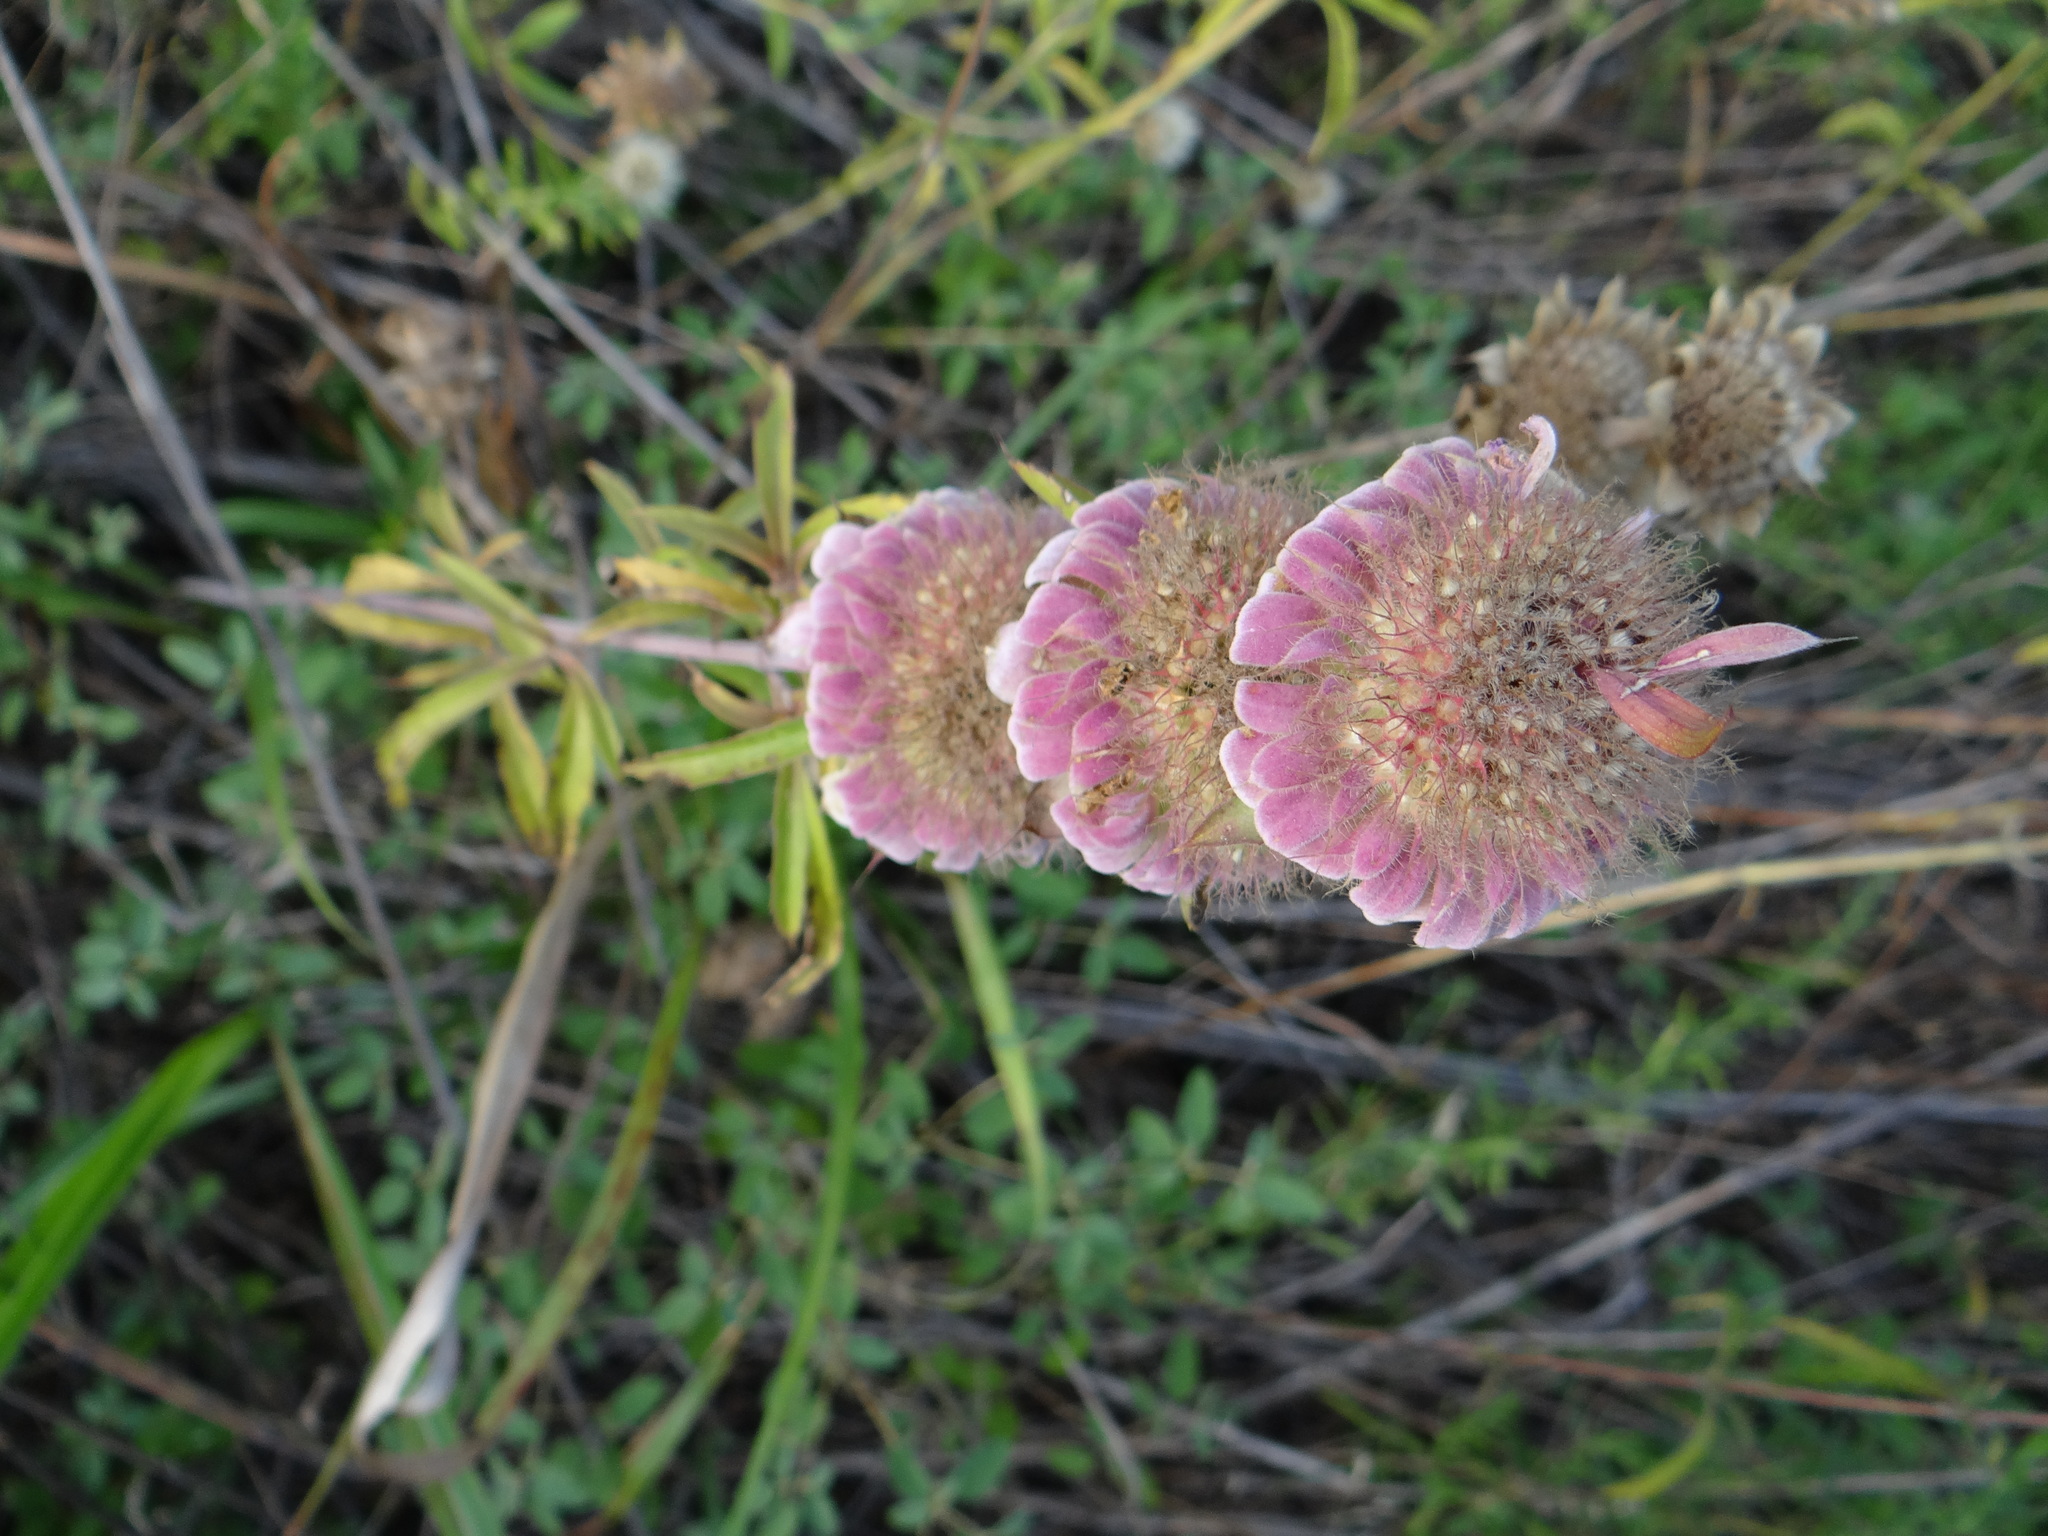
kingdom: Plantae
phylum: Tracheophyta
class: Magnoliopsida
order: Lamiales
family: Lamiaceae
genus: Monarda
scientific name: Monarda citriodora
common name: Lemon beebalm
